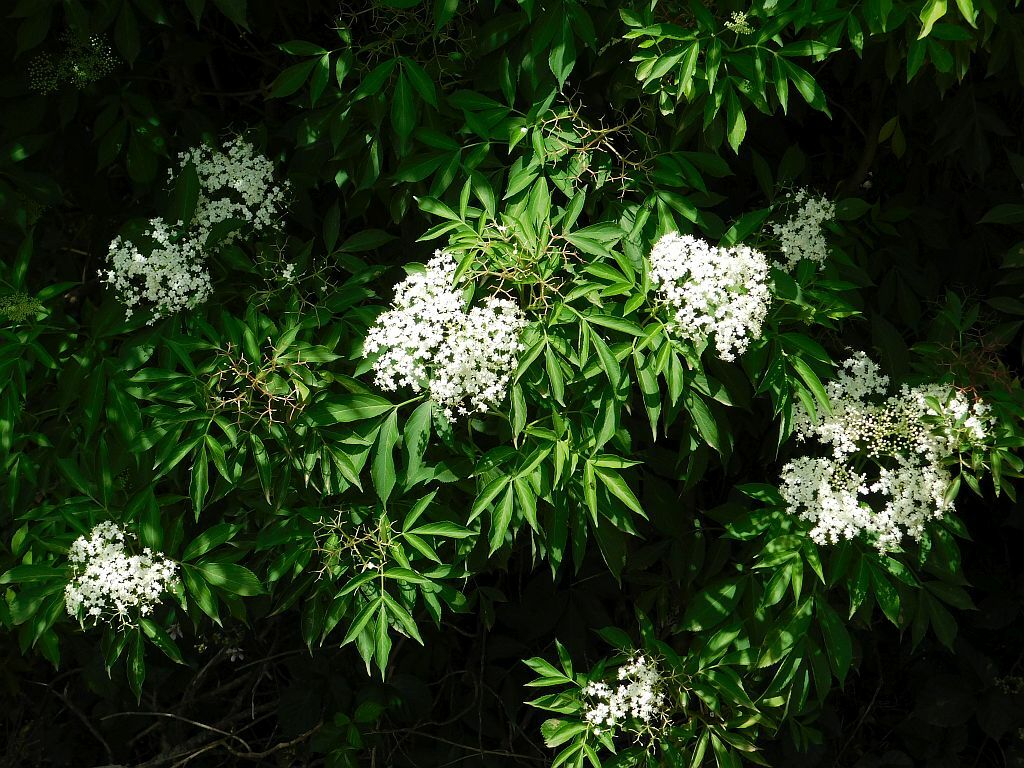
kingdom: Plantae
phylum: Tracheophyta
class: Magnoliopsida
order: Dipsacales
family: Viburnaceae
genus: Sambucus
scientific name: Sambucus nigra
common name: Elder
